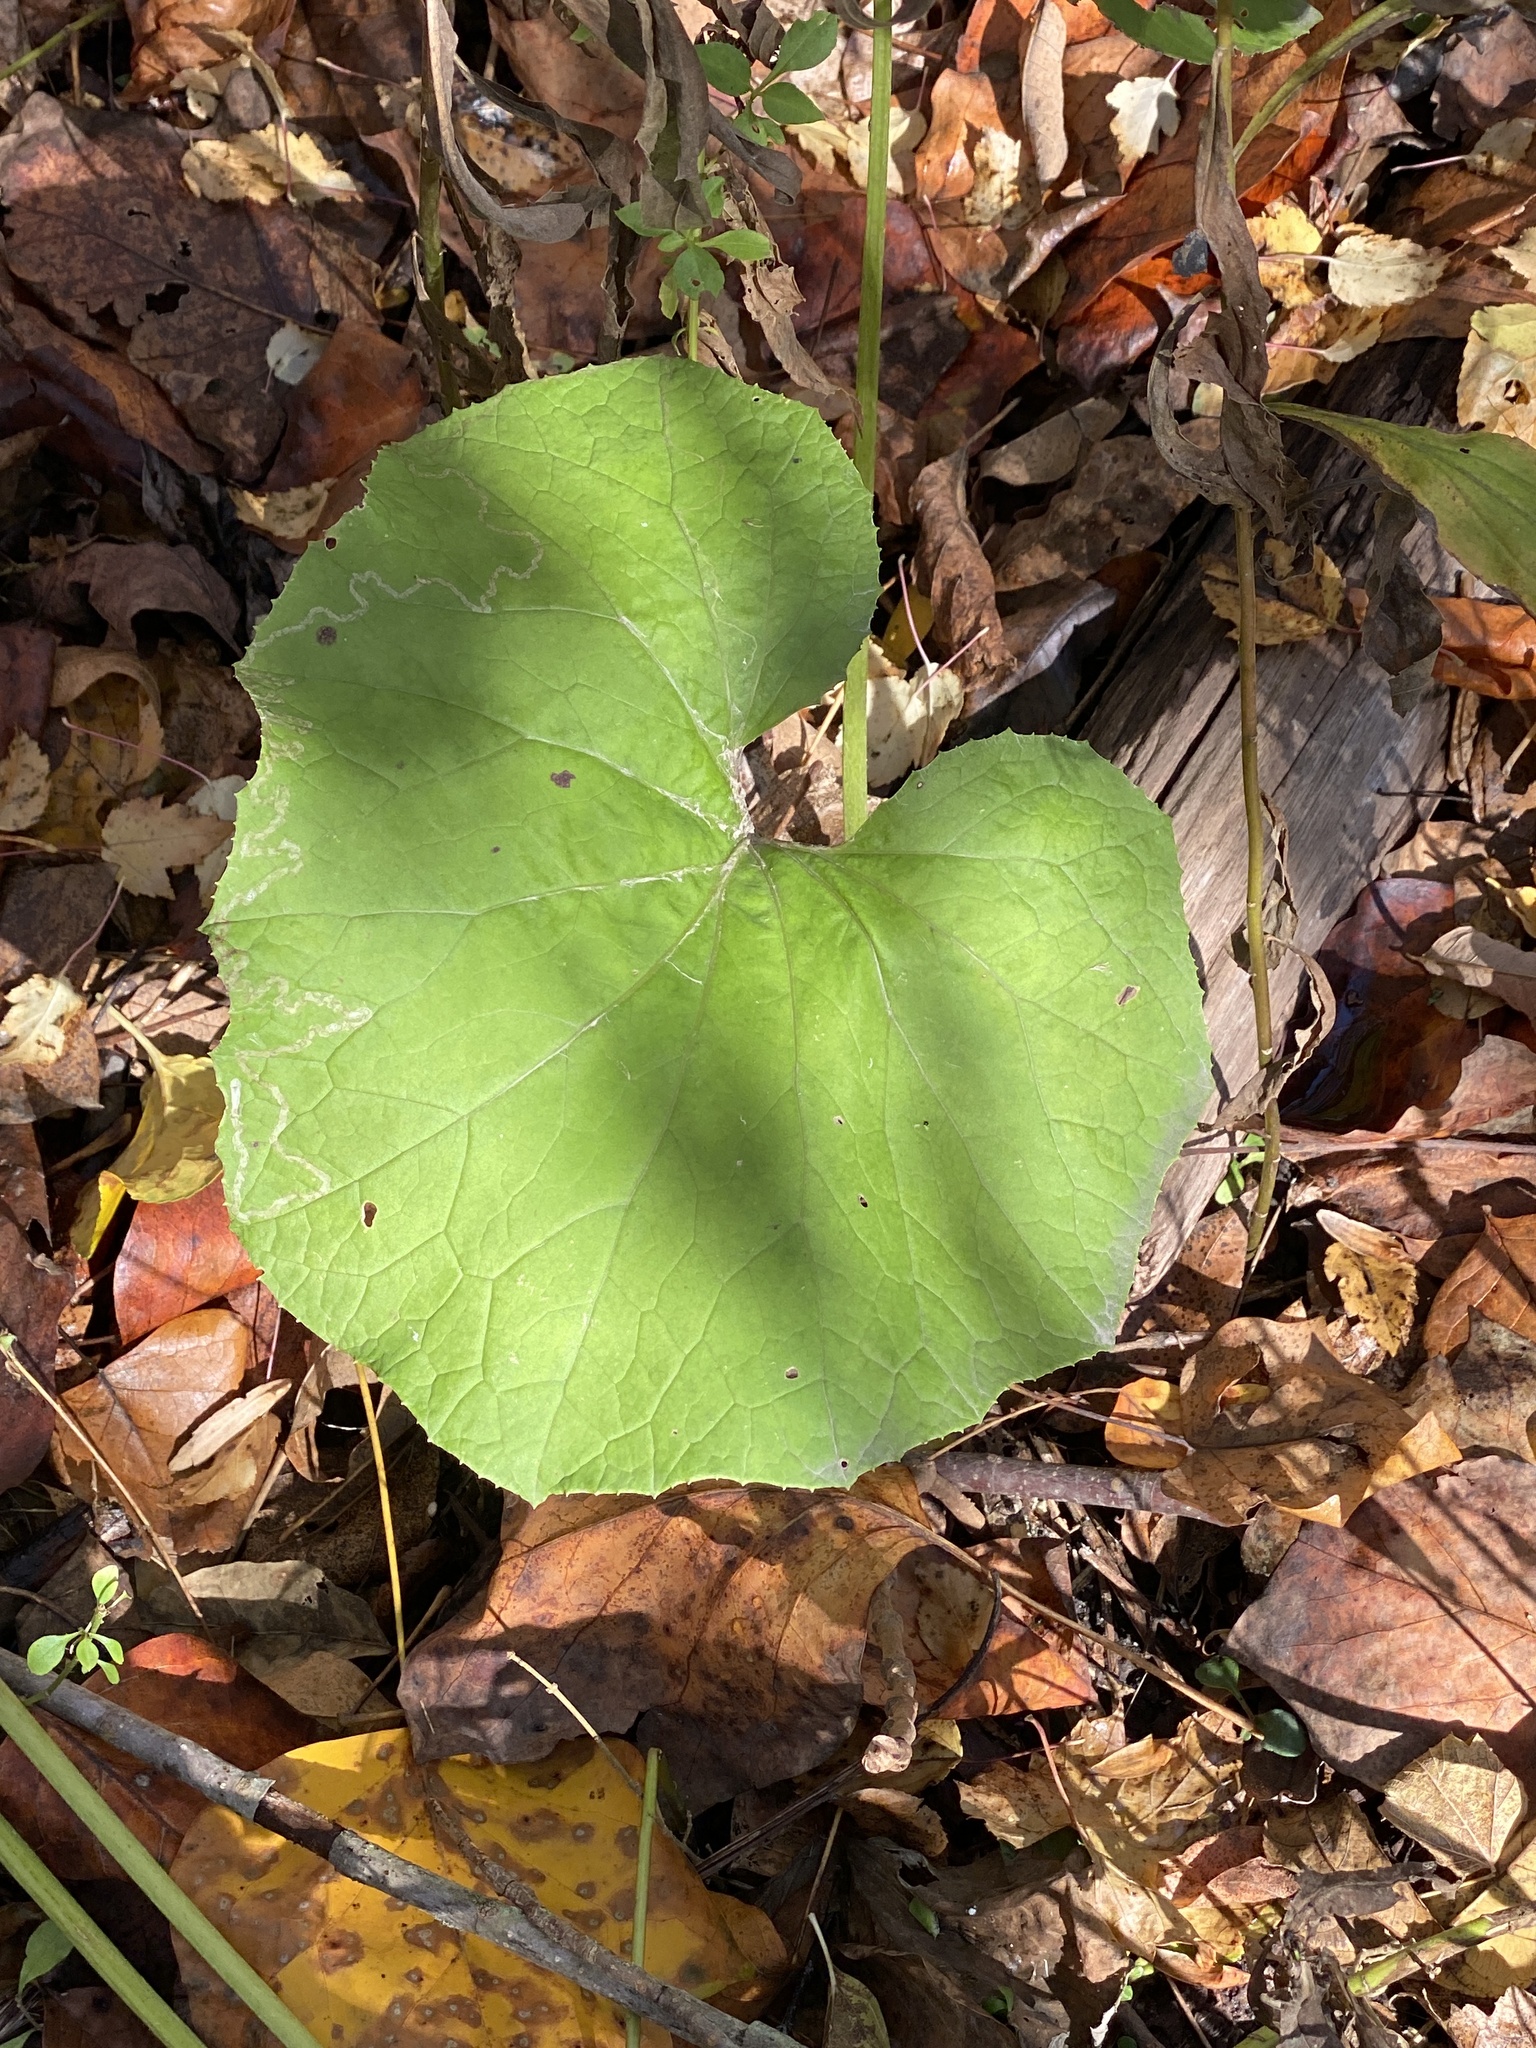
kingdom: Plantae
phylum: Tracheophyta
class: Magnoliopsida
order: Asterales
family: Asteraceae
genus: Tussilago
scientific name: Tussilago farfara
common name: Coltsfoot
